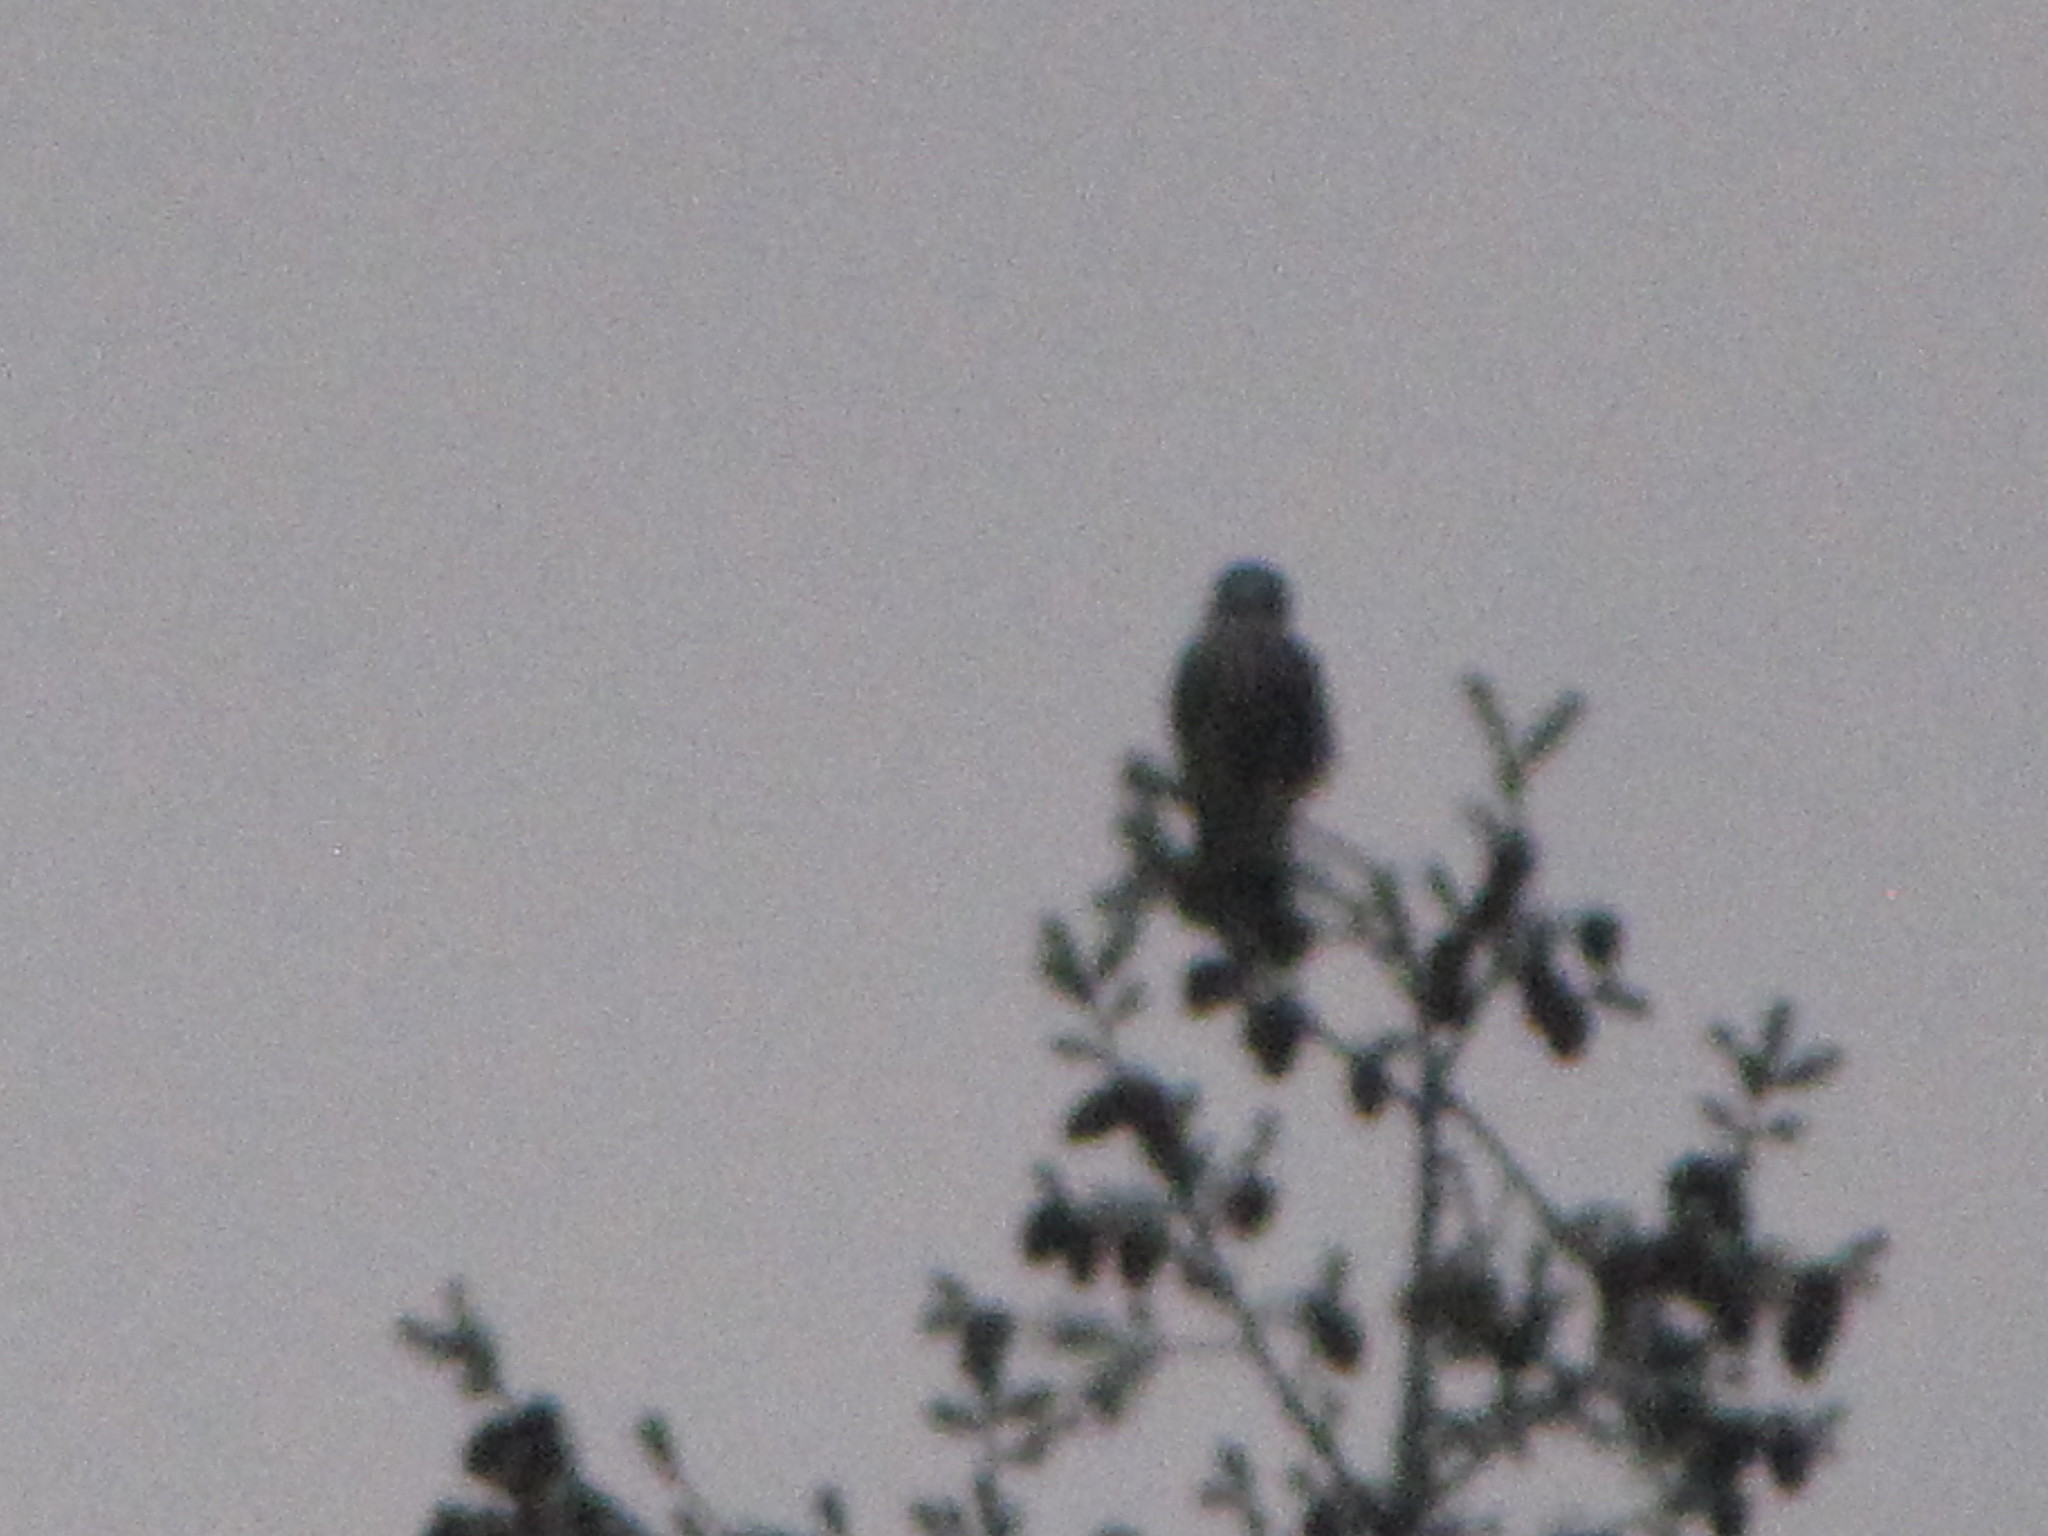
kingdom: Animalia
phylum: Chordata
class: Aves
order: Falconiformes
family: Falconidae
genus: Falco
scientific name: Falco columbarius
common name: Merlin
